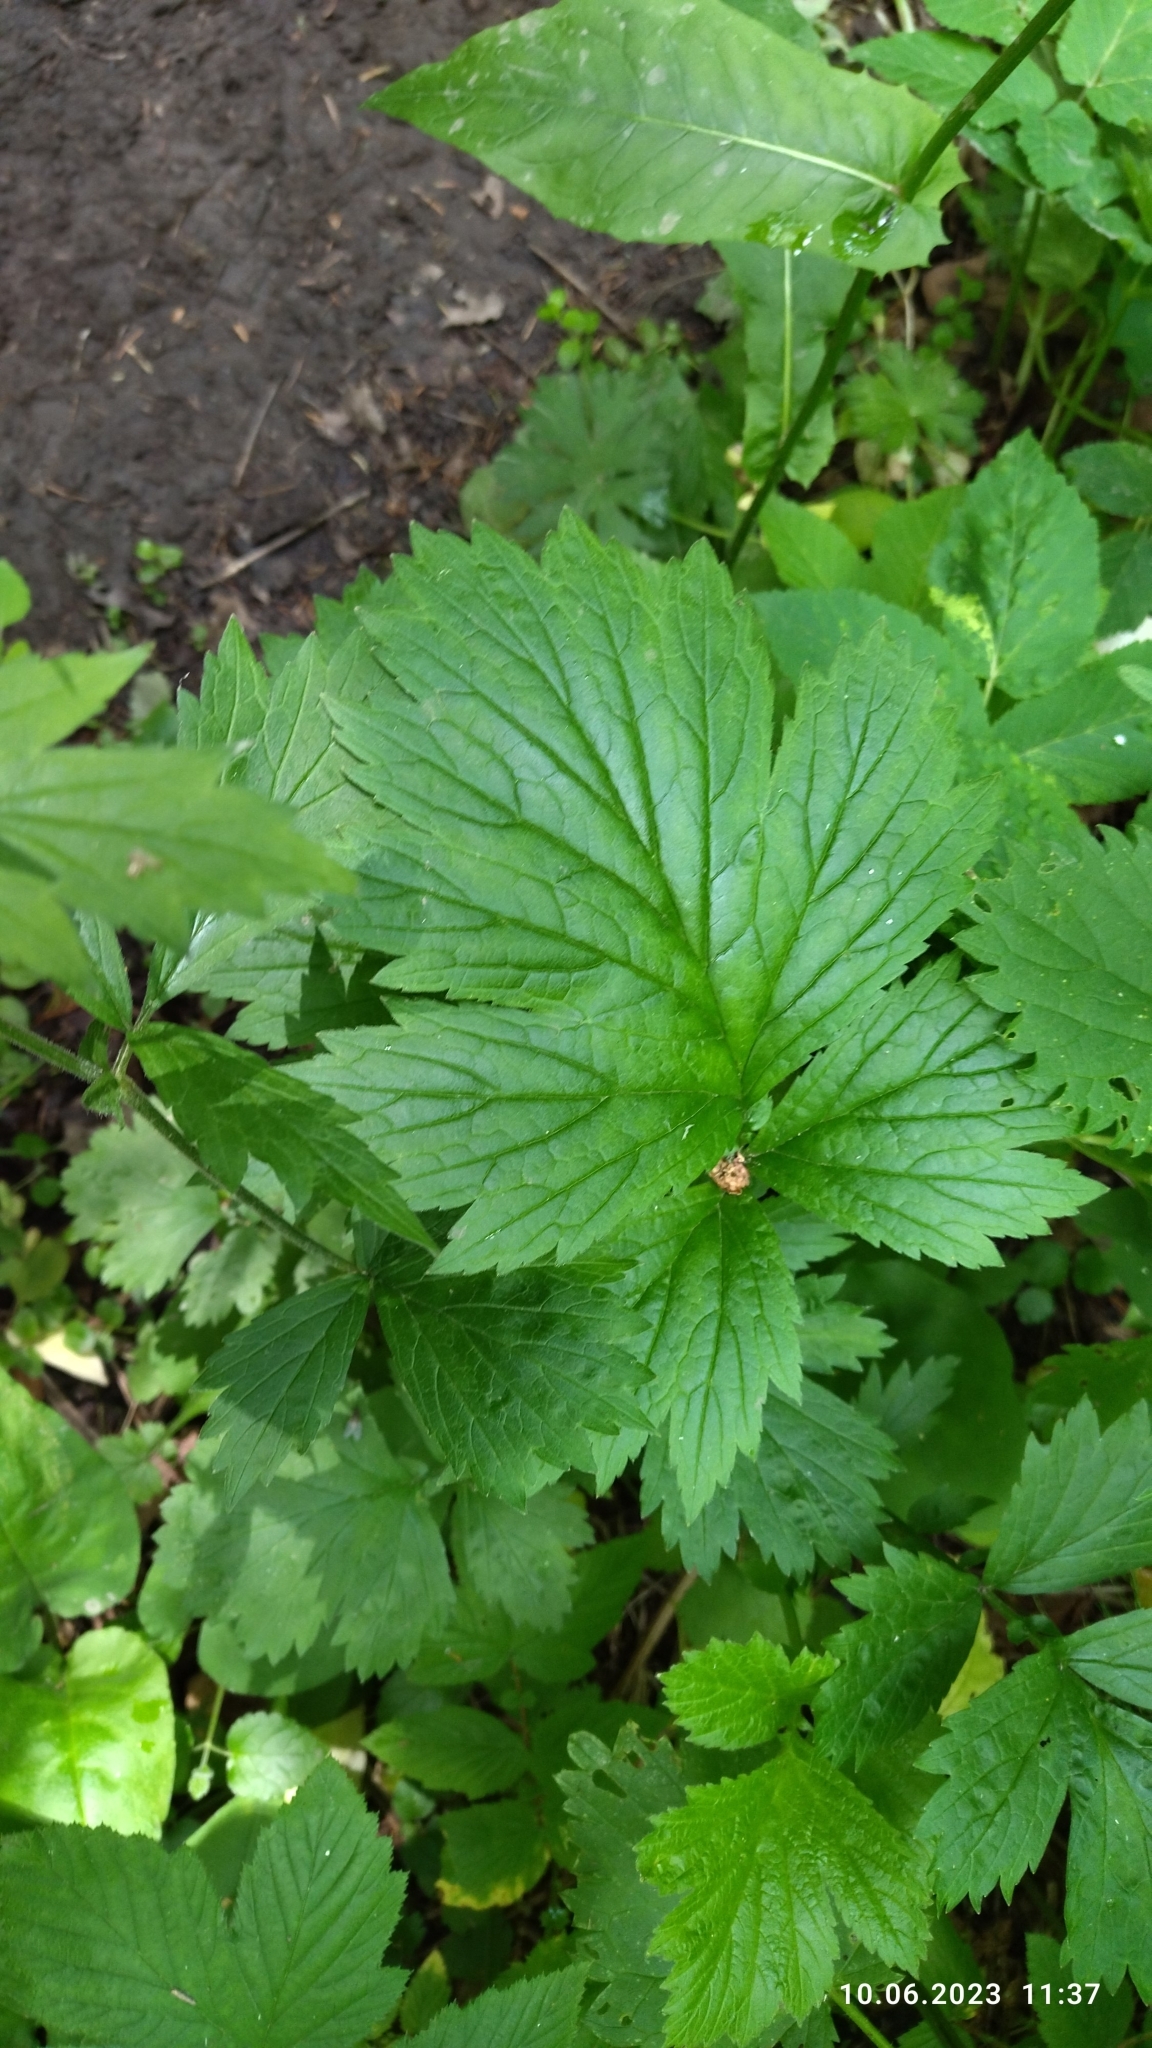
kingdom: Plantae
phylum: Tracheophyta
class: Magnoliopsida
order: Rosales
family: Rosaceae
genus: Geum
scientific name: Geum rivale
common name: Water avens
